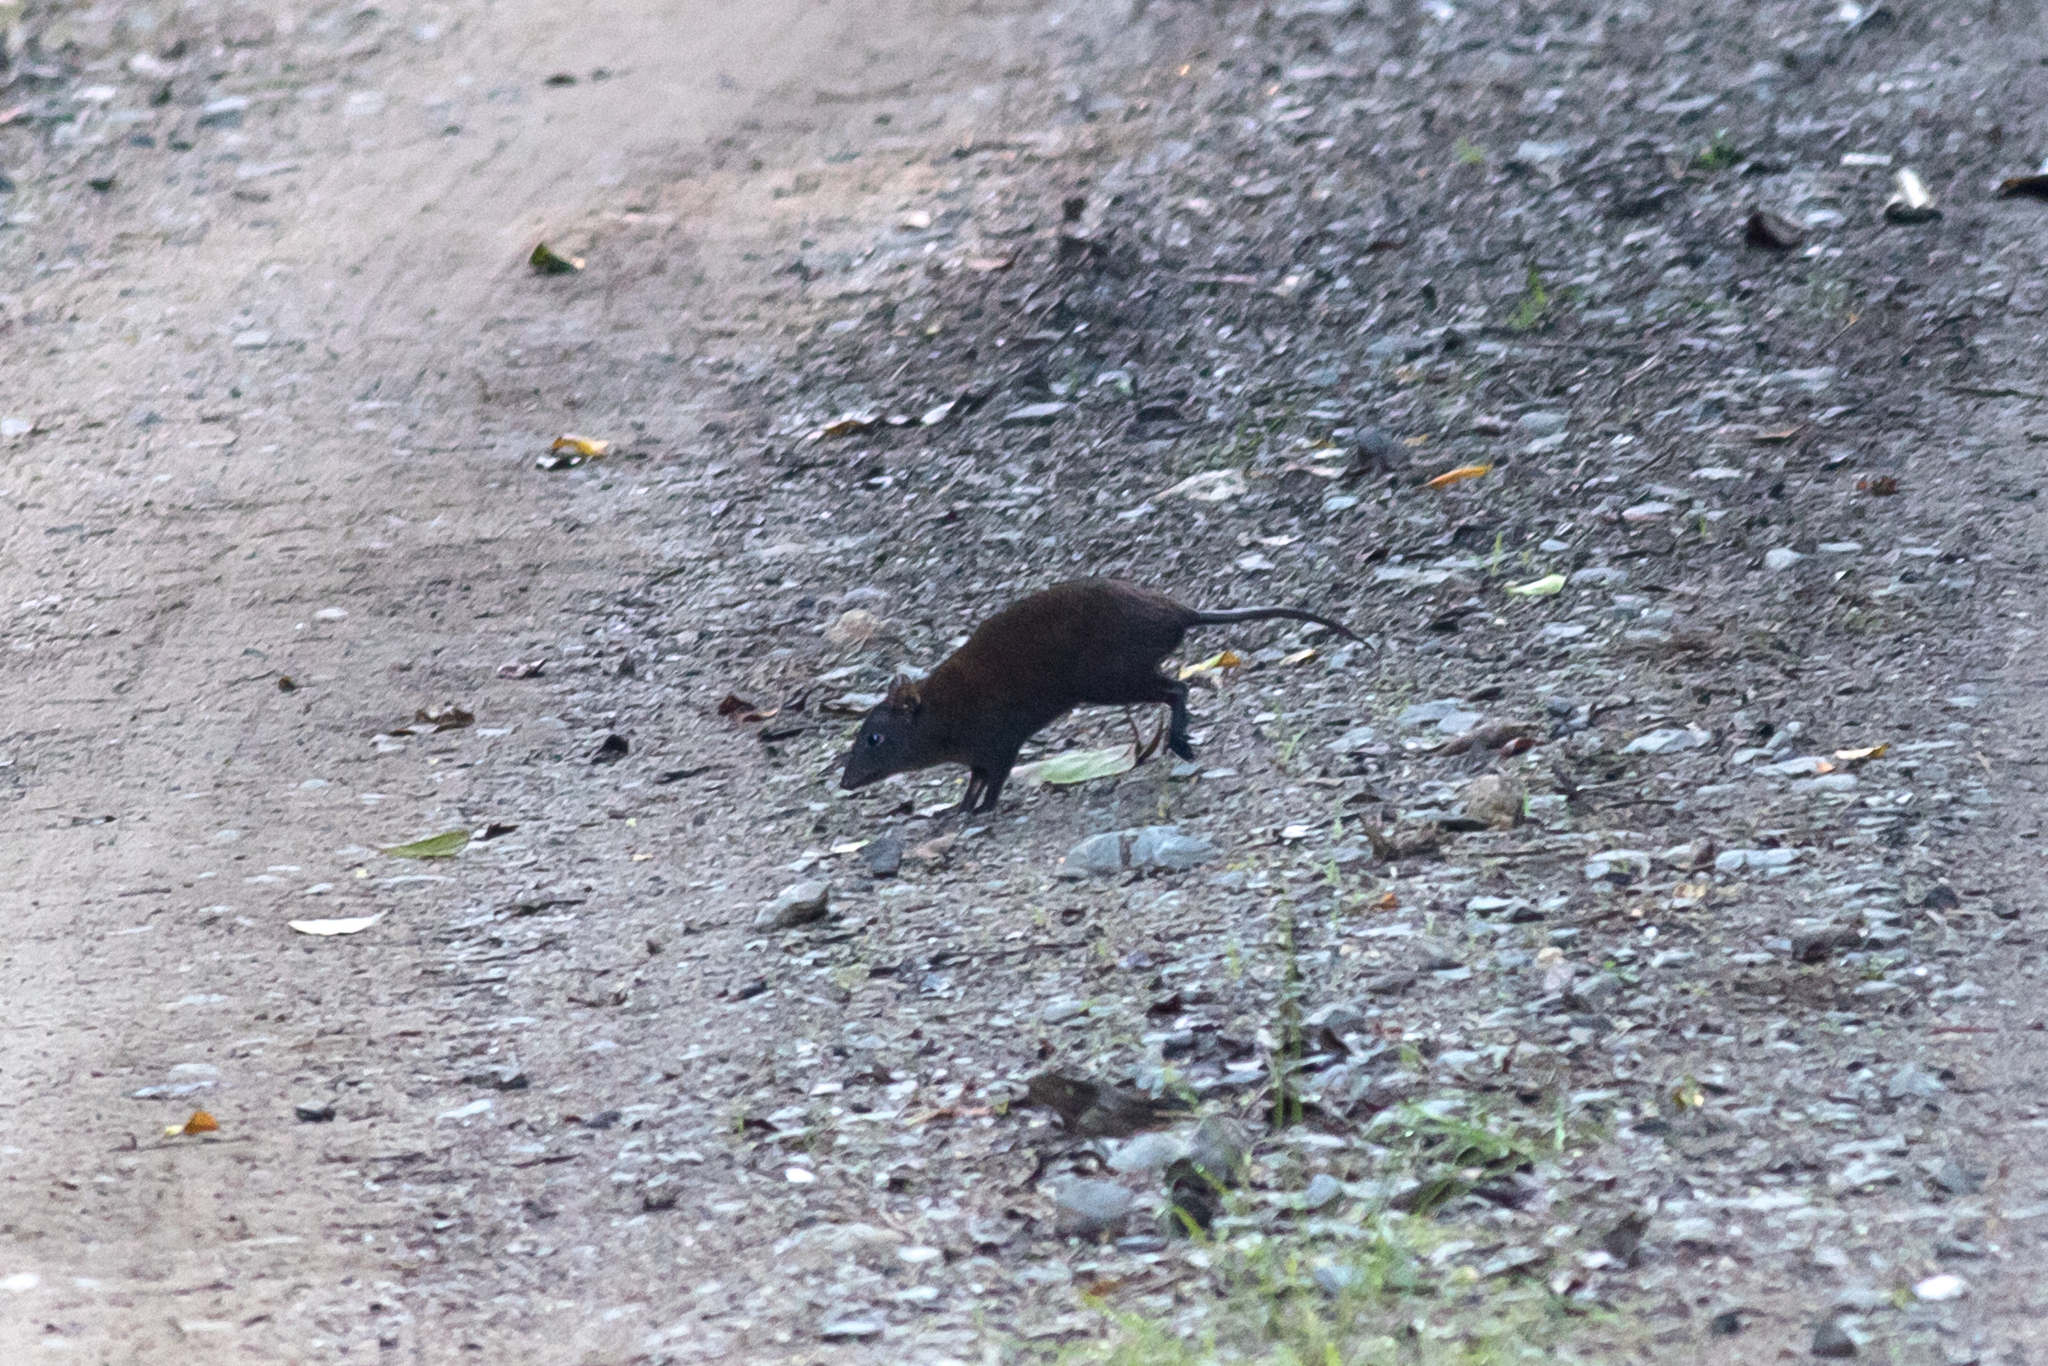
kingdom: Animalia
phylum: Chordata
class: Mammalia
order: Diprotodontia
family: Hypsiprymnodontidae
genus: Hypsiprymnodon
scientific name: Hypsiprymnodon moschatus
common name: Musky rat-kangaroo
